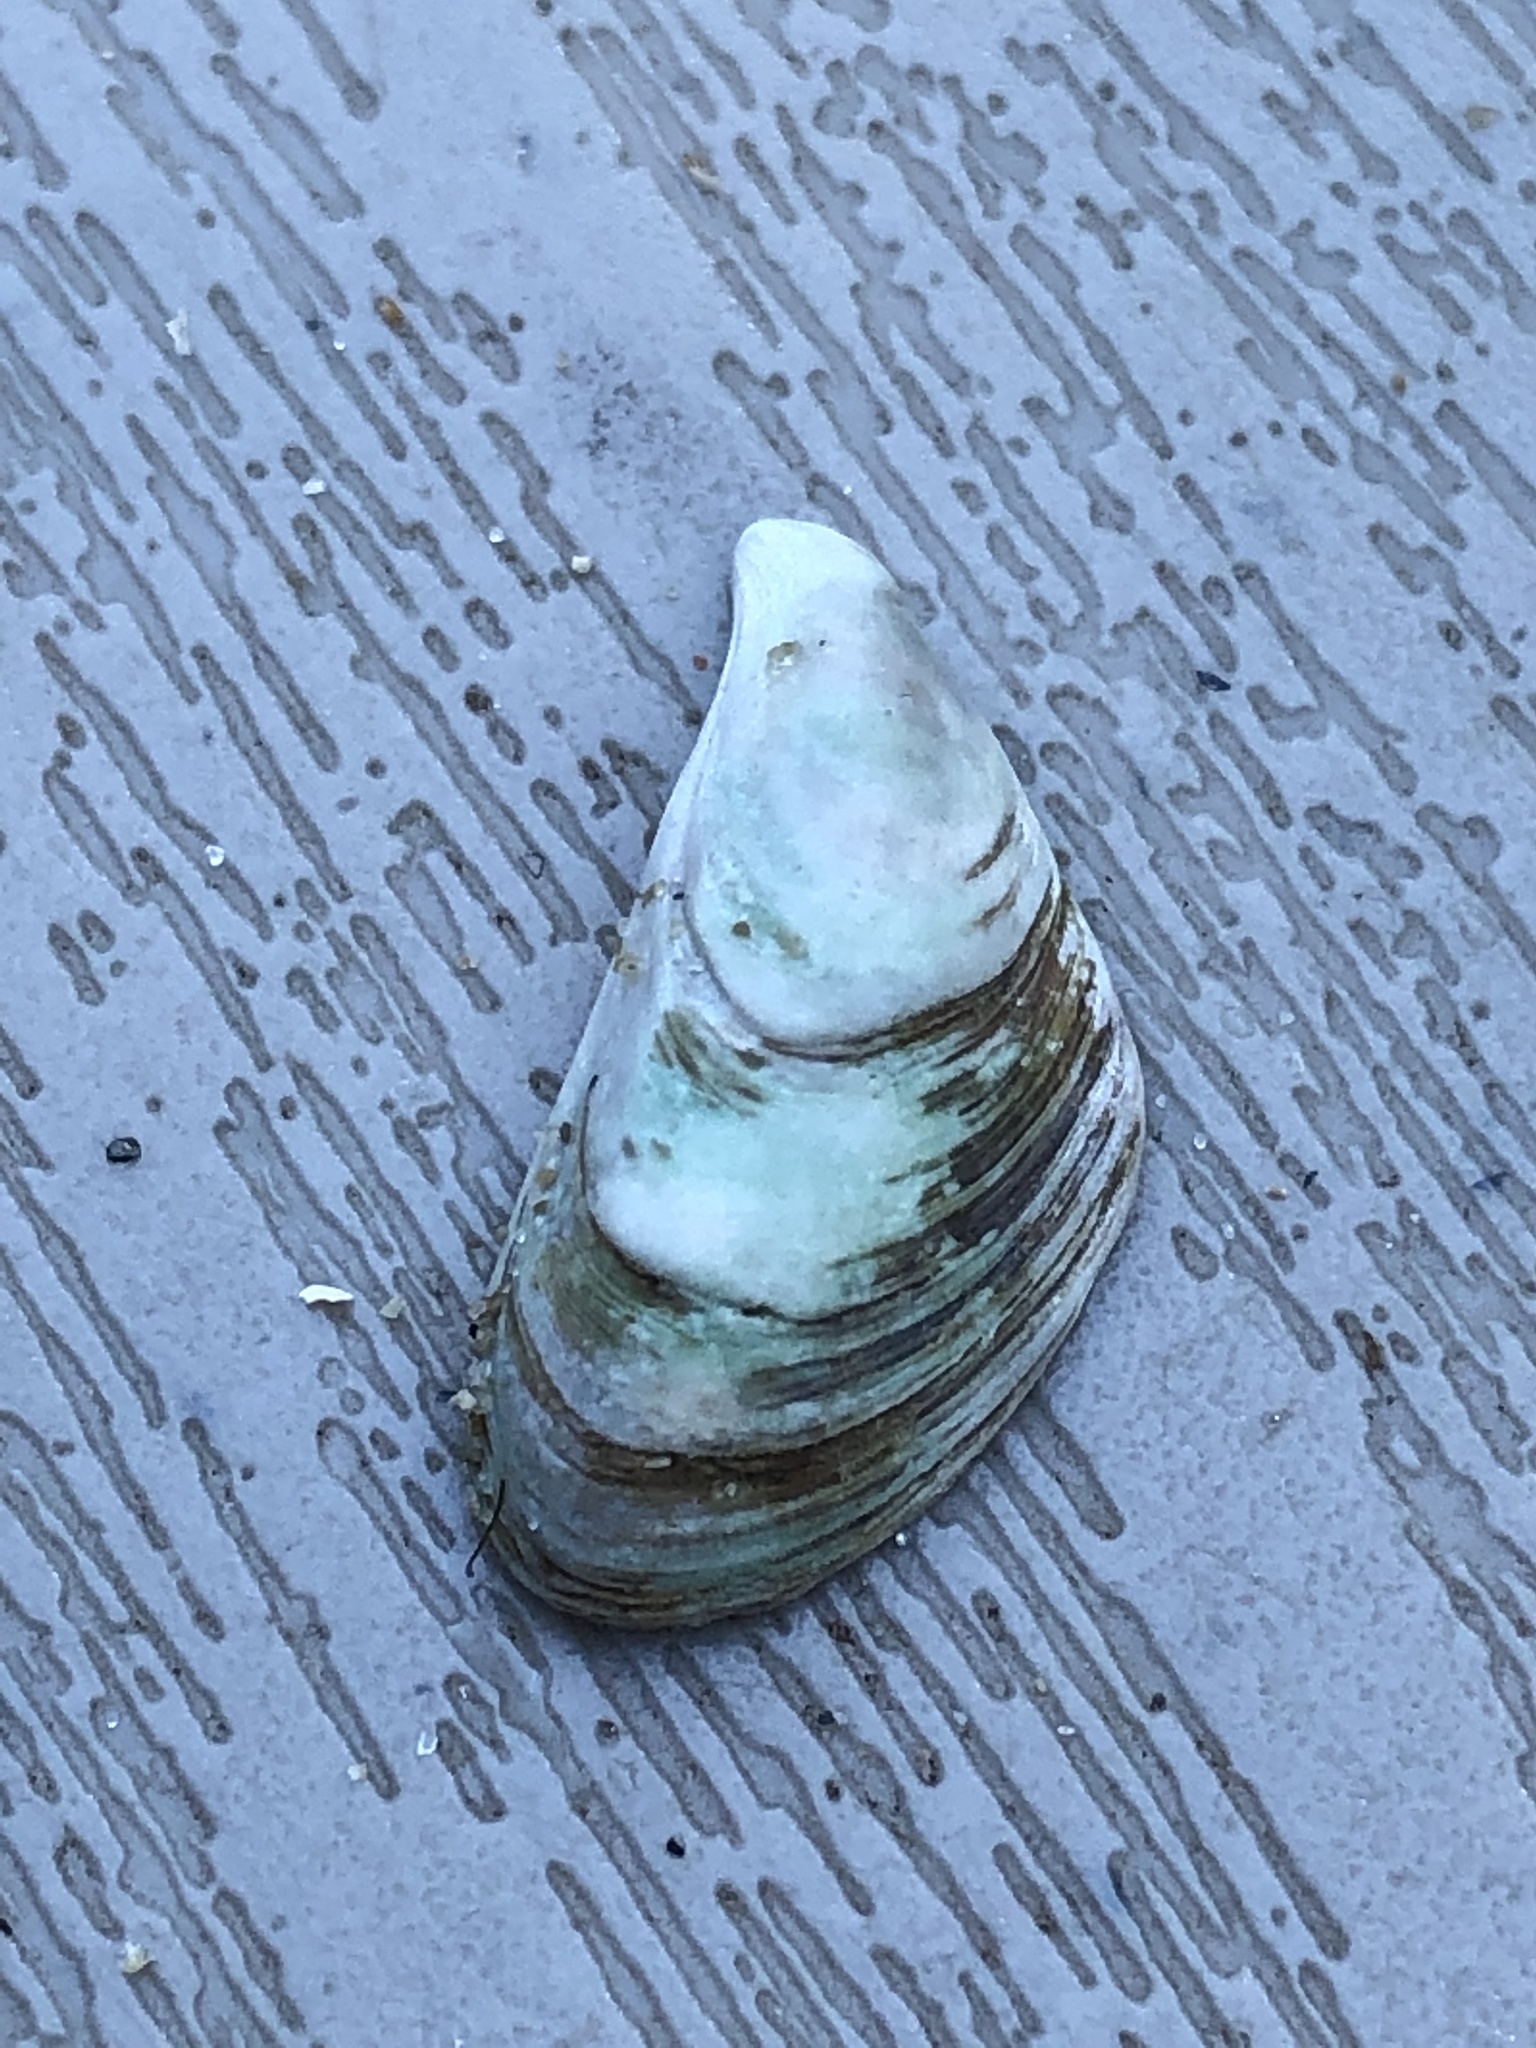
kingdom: Animalia
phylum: Mollusca
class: Bivalvia
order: Myida
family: Dreissenidae
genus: Dreissena
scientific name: Dreissena bugensis
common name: Quagga mussel
